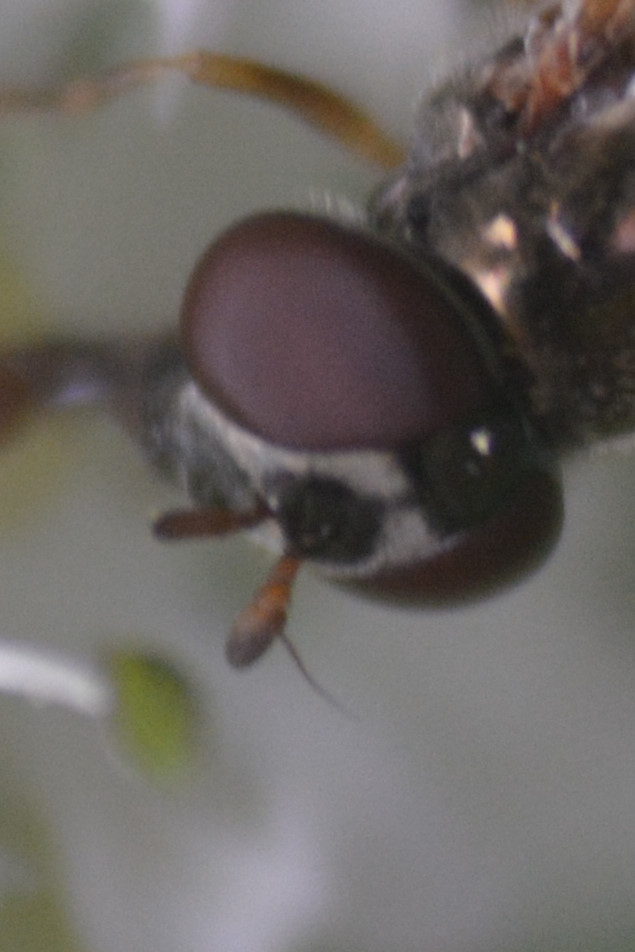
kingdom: Animalia
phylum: Arthropoda
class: Insecta
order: Diptera
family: Syrphidae
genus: Melanostoma
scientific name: Melanostoma scalare
